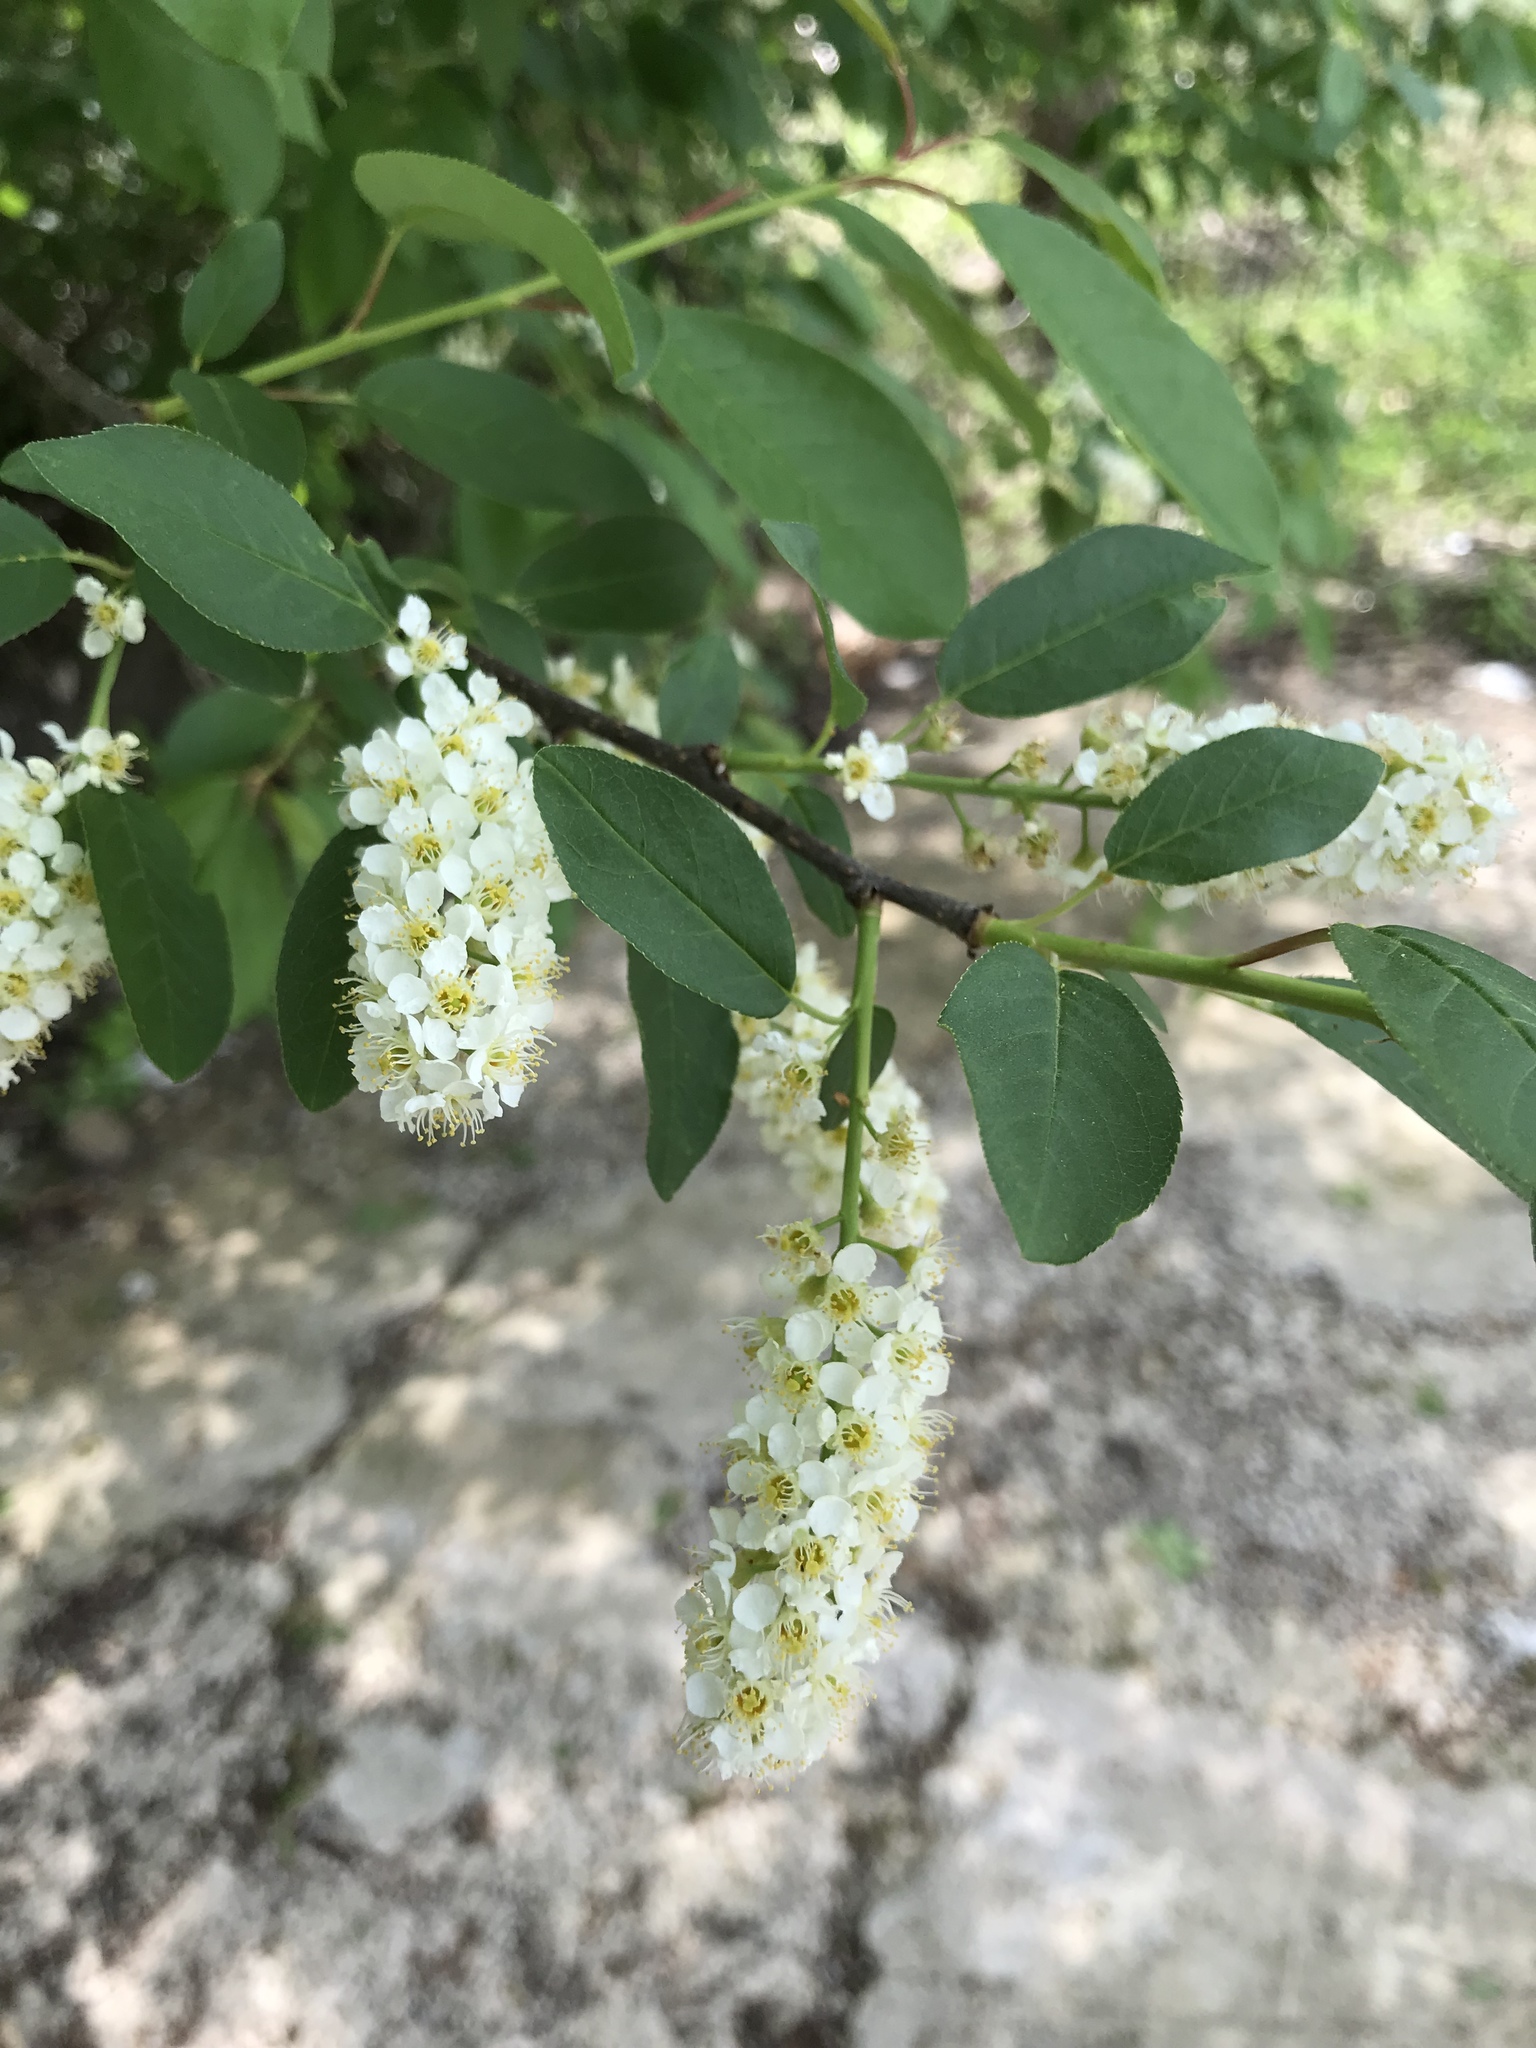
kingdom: Plantae
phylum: Tracheophyta
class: Magnoliopsida
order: Rosales
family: Rosaceae
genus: Prunus
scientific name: Prunus virginiana
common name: Chokecherry
